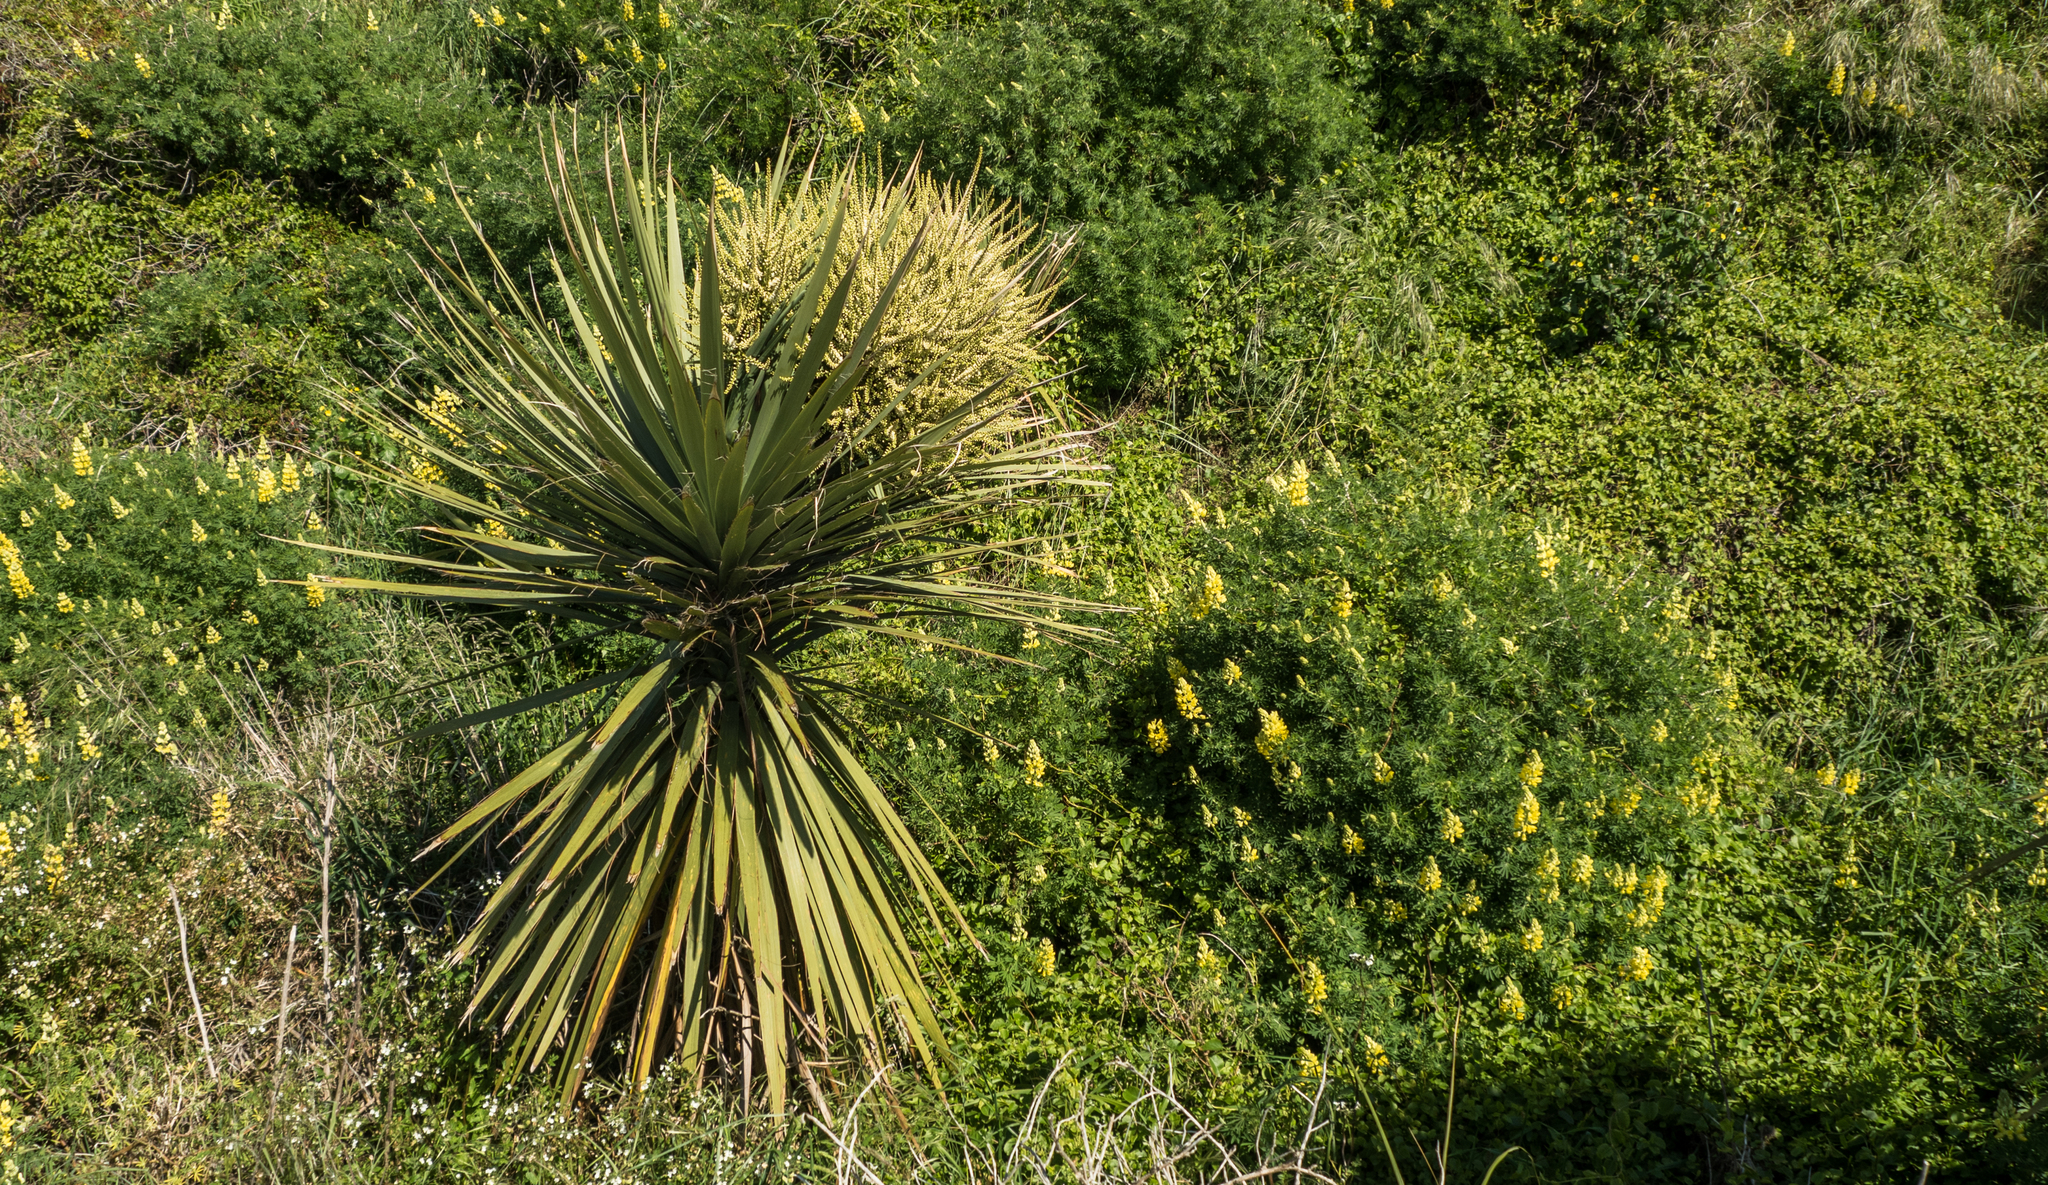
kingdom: Plantae
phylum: Tracheophyta
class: Liliopsida
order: Asparagales
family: Asparagaceae
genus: Cordyline
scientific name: Cordyline australis
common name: Cabbage-palm
